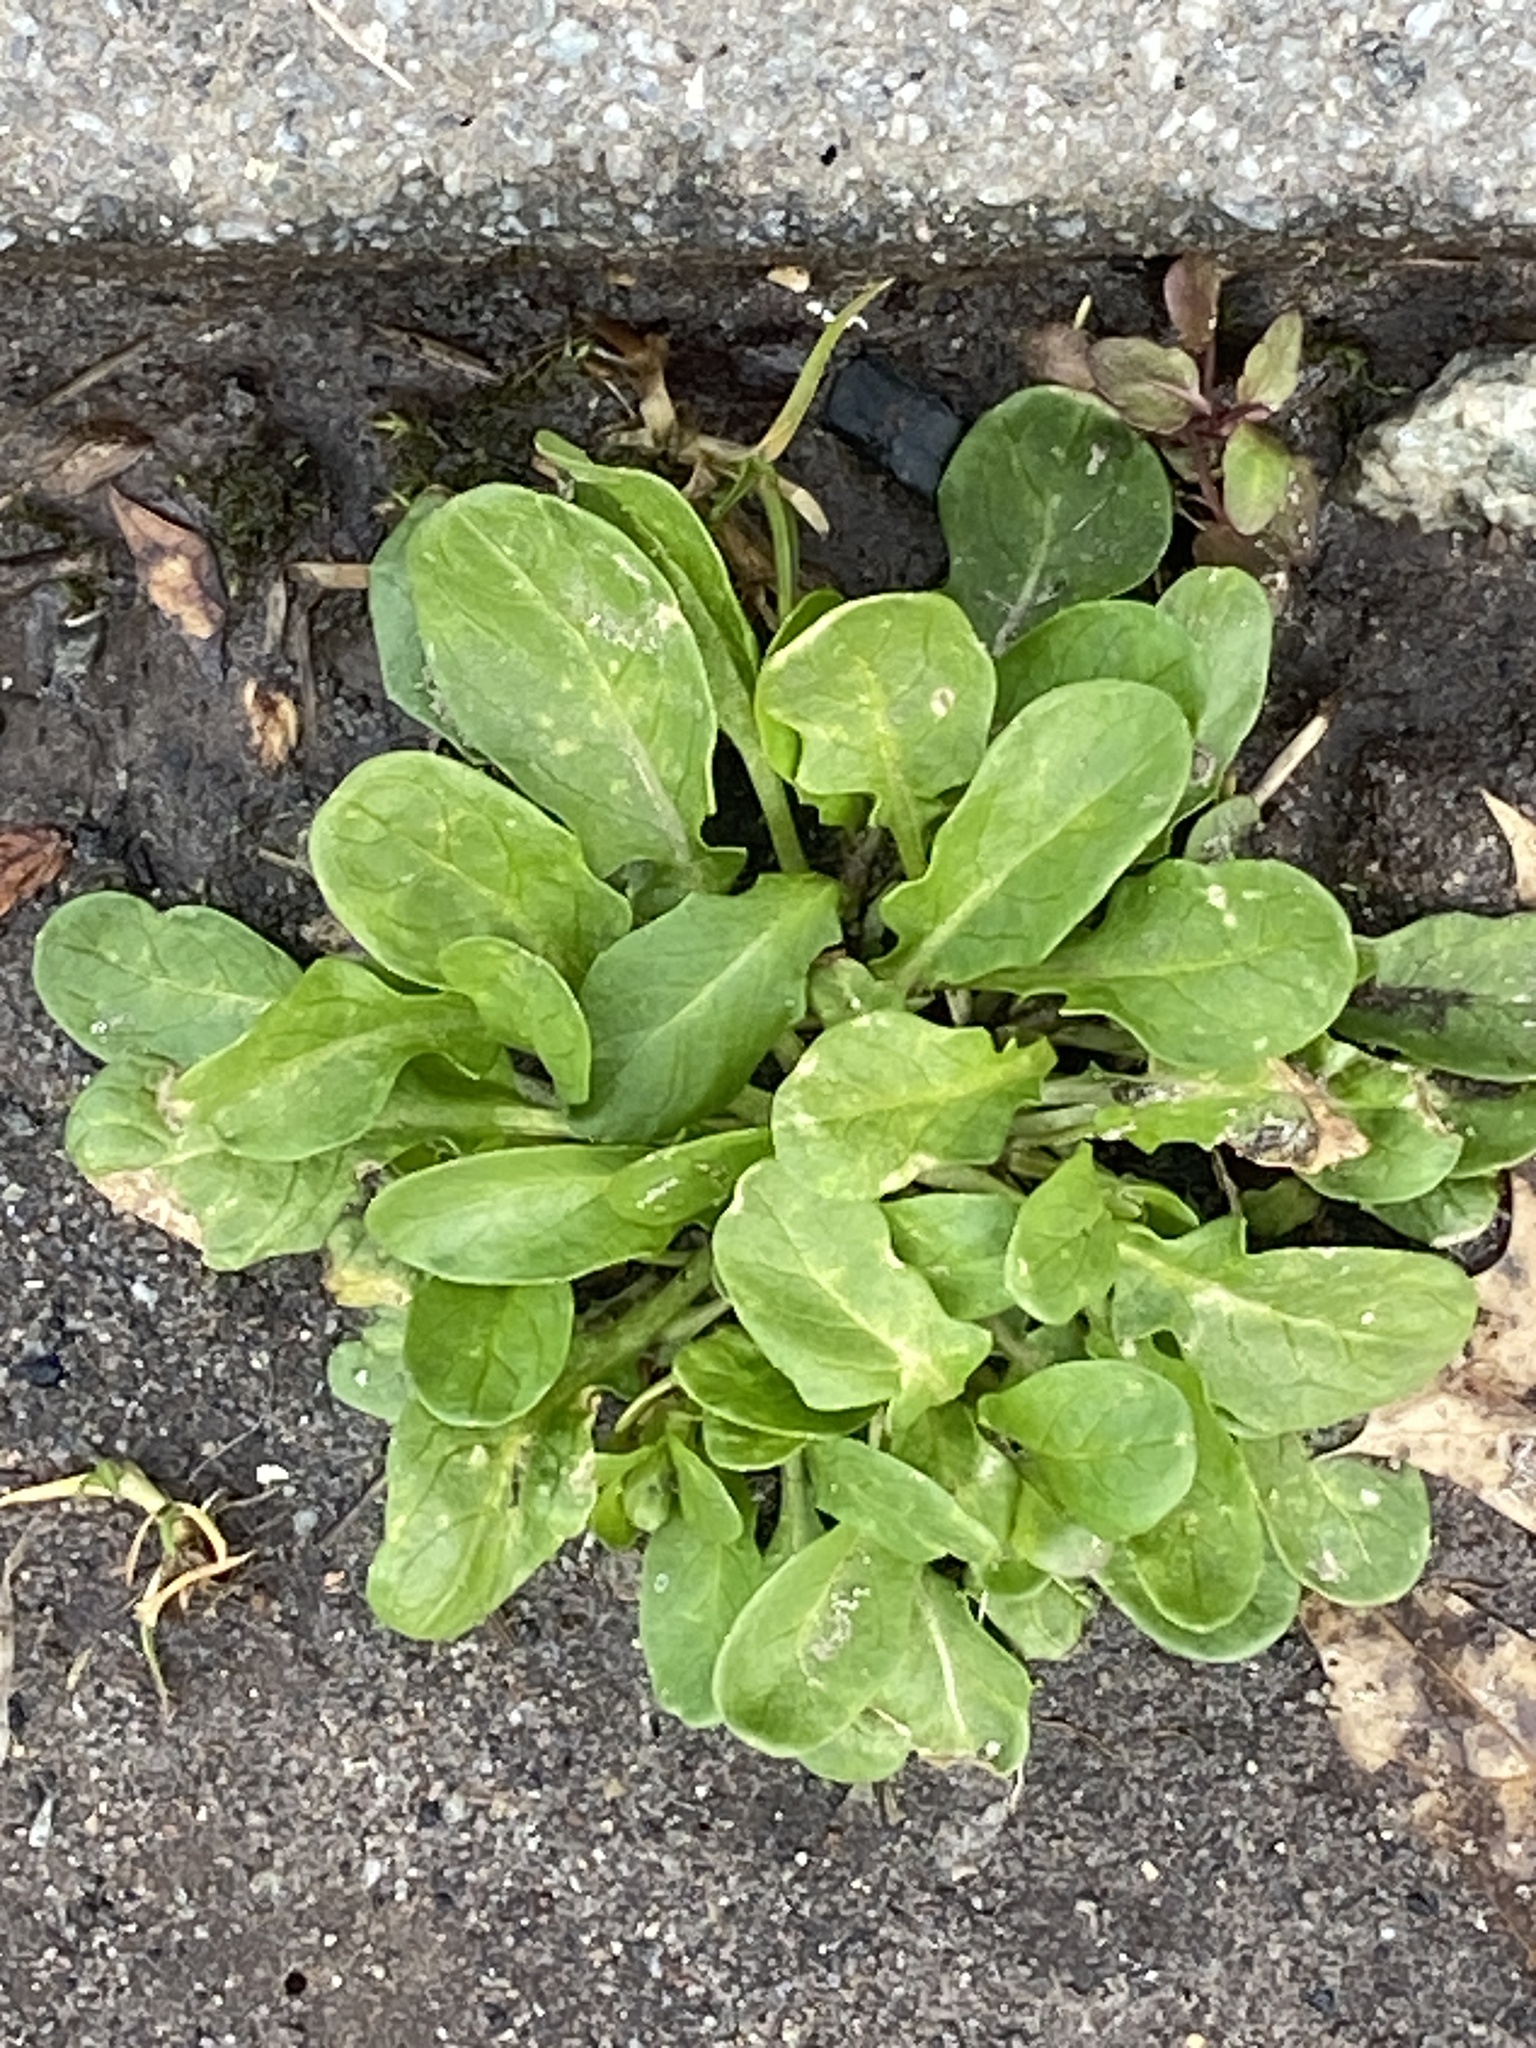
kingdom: Plantae
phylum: Tracheophyta
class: Magnoliopsida
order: Brassicales
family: Brassicaceae
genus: Thlaspi
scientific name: Thlaspi arvense
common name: Field pennycress
